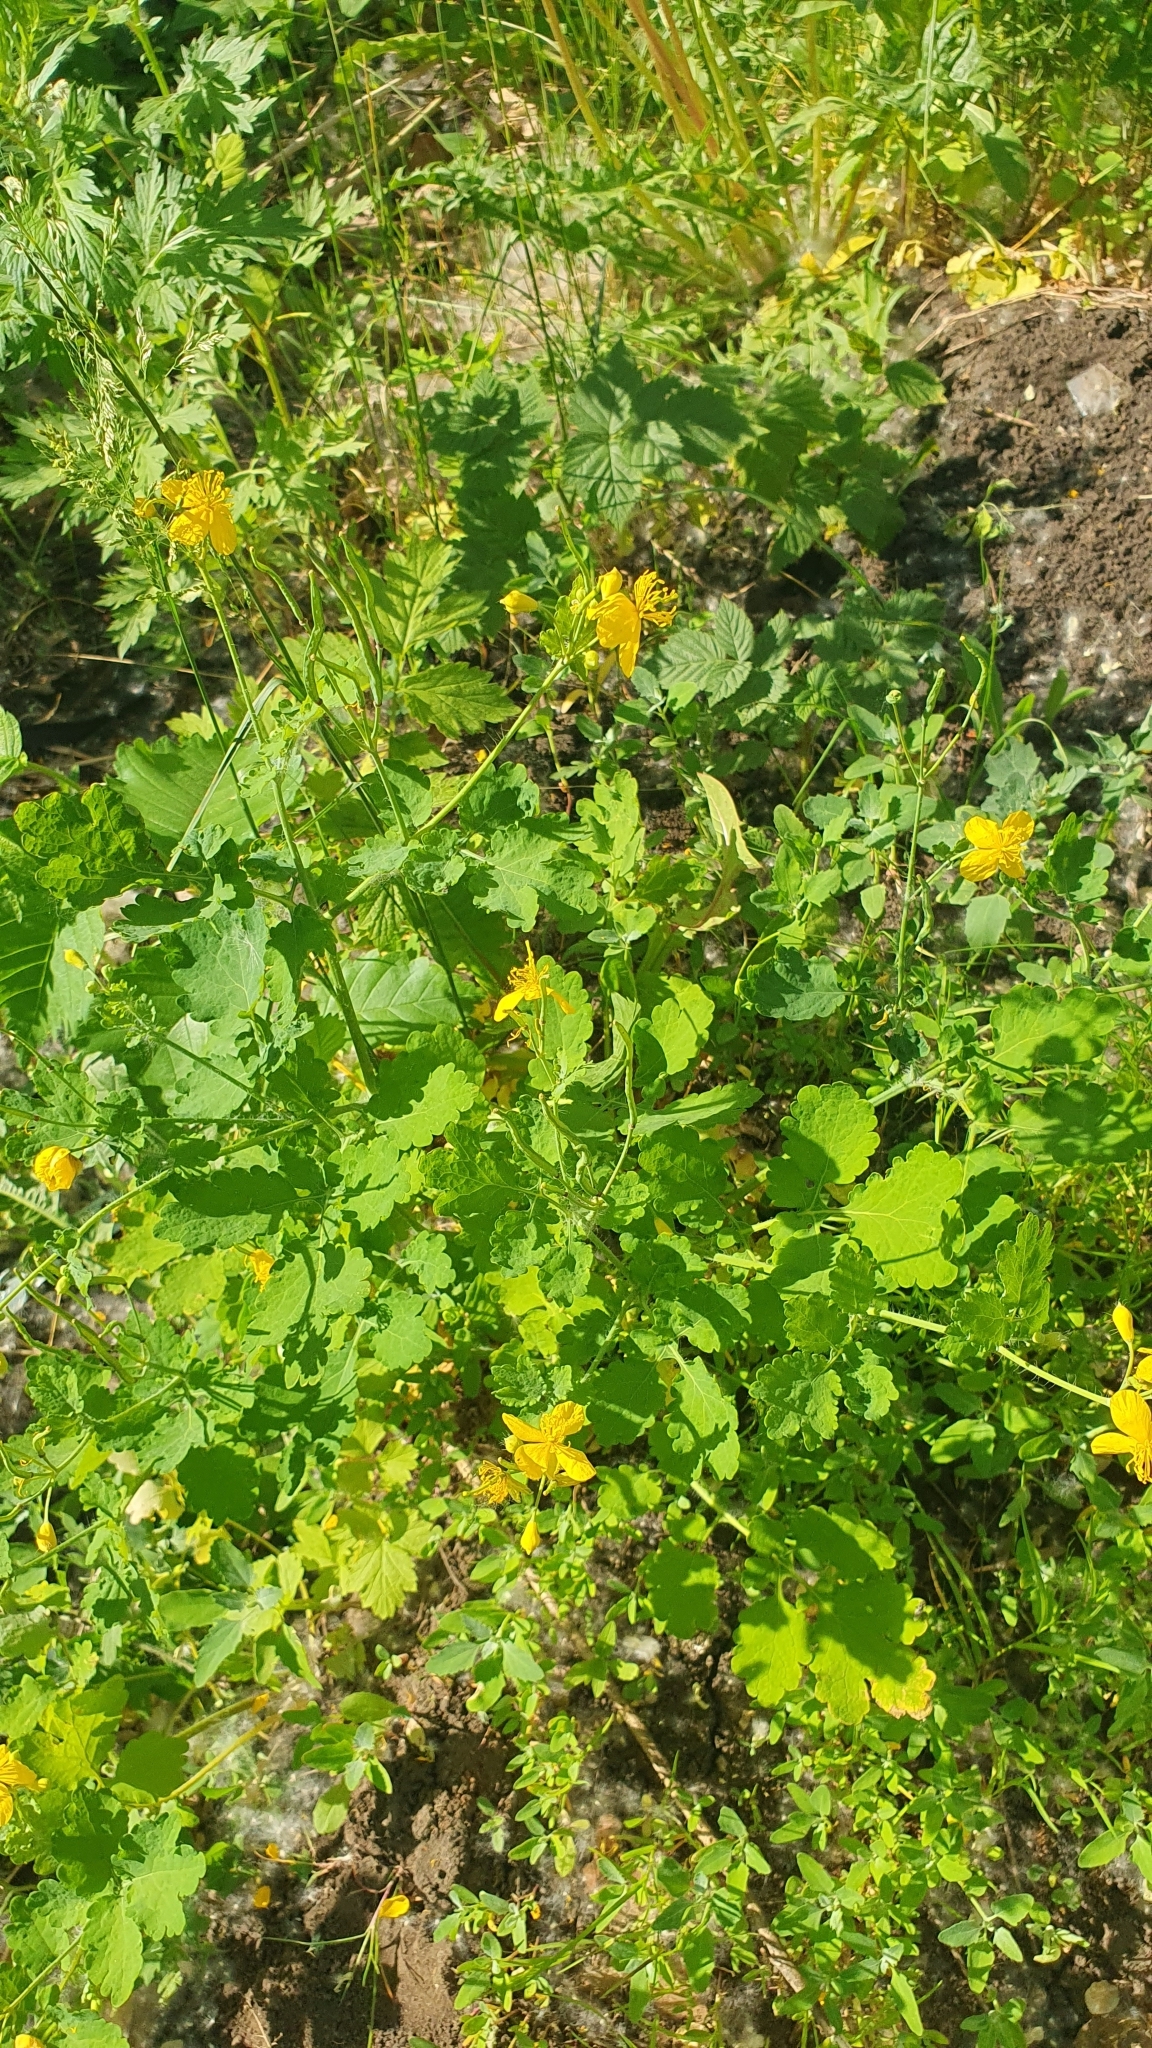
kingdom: Plantae
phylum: Tracheophyta
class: Magnoliopsida
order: Ranunculales
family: Papaveraceae
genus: Chelidonium
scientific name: Chelidonium majus
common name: Greater celandine
